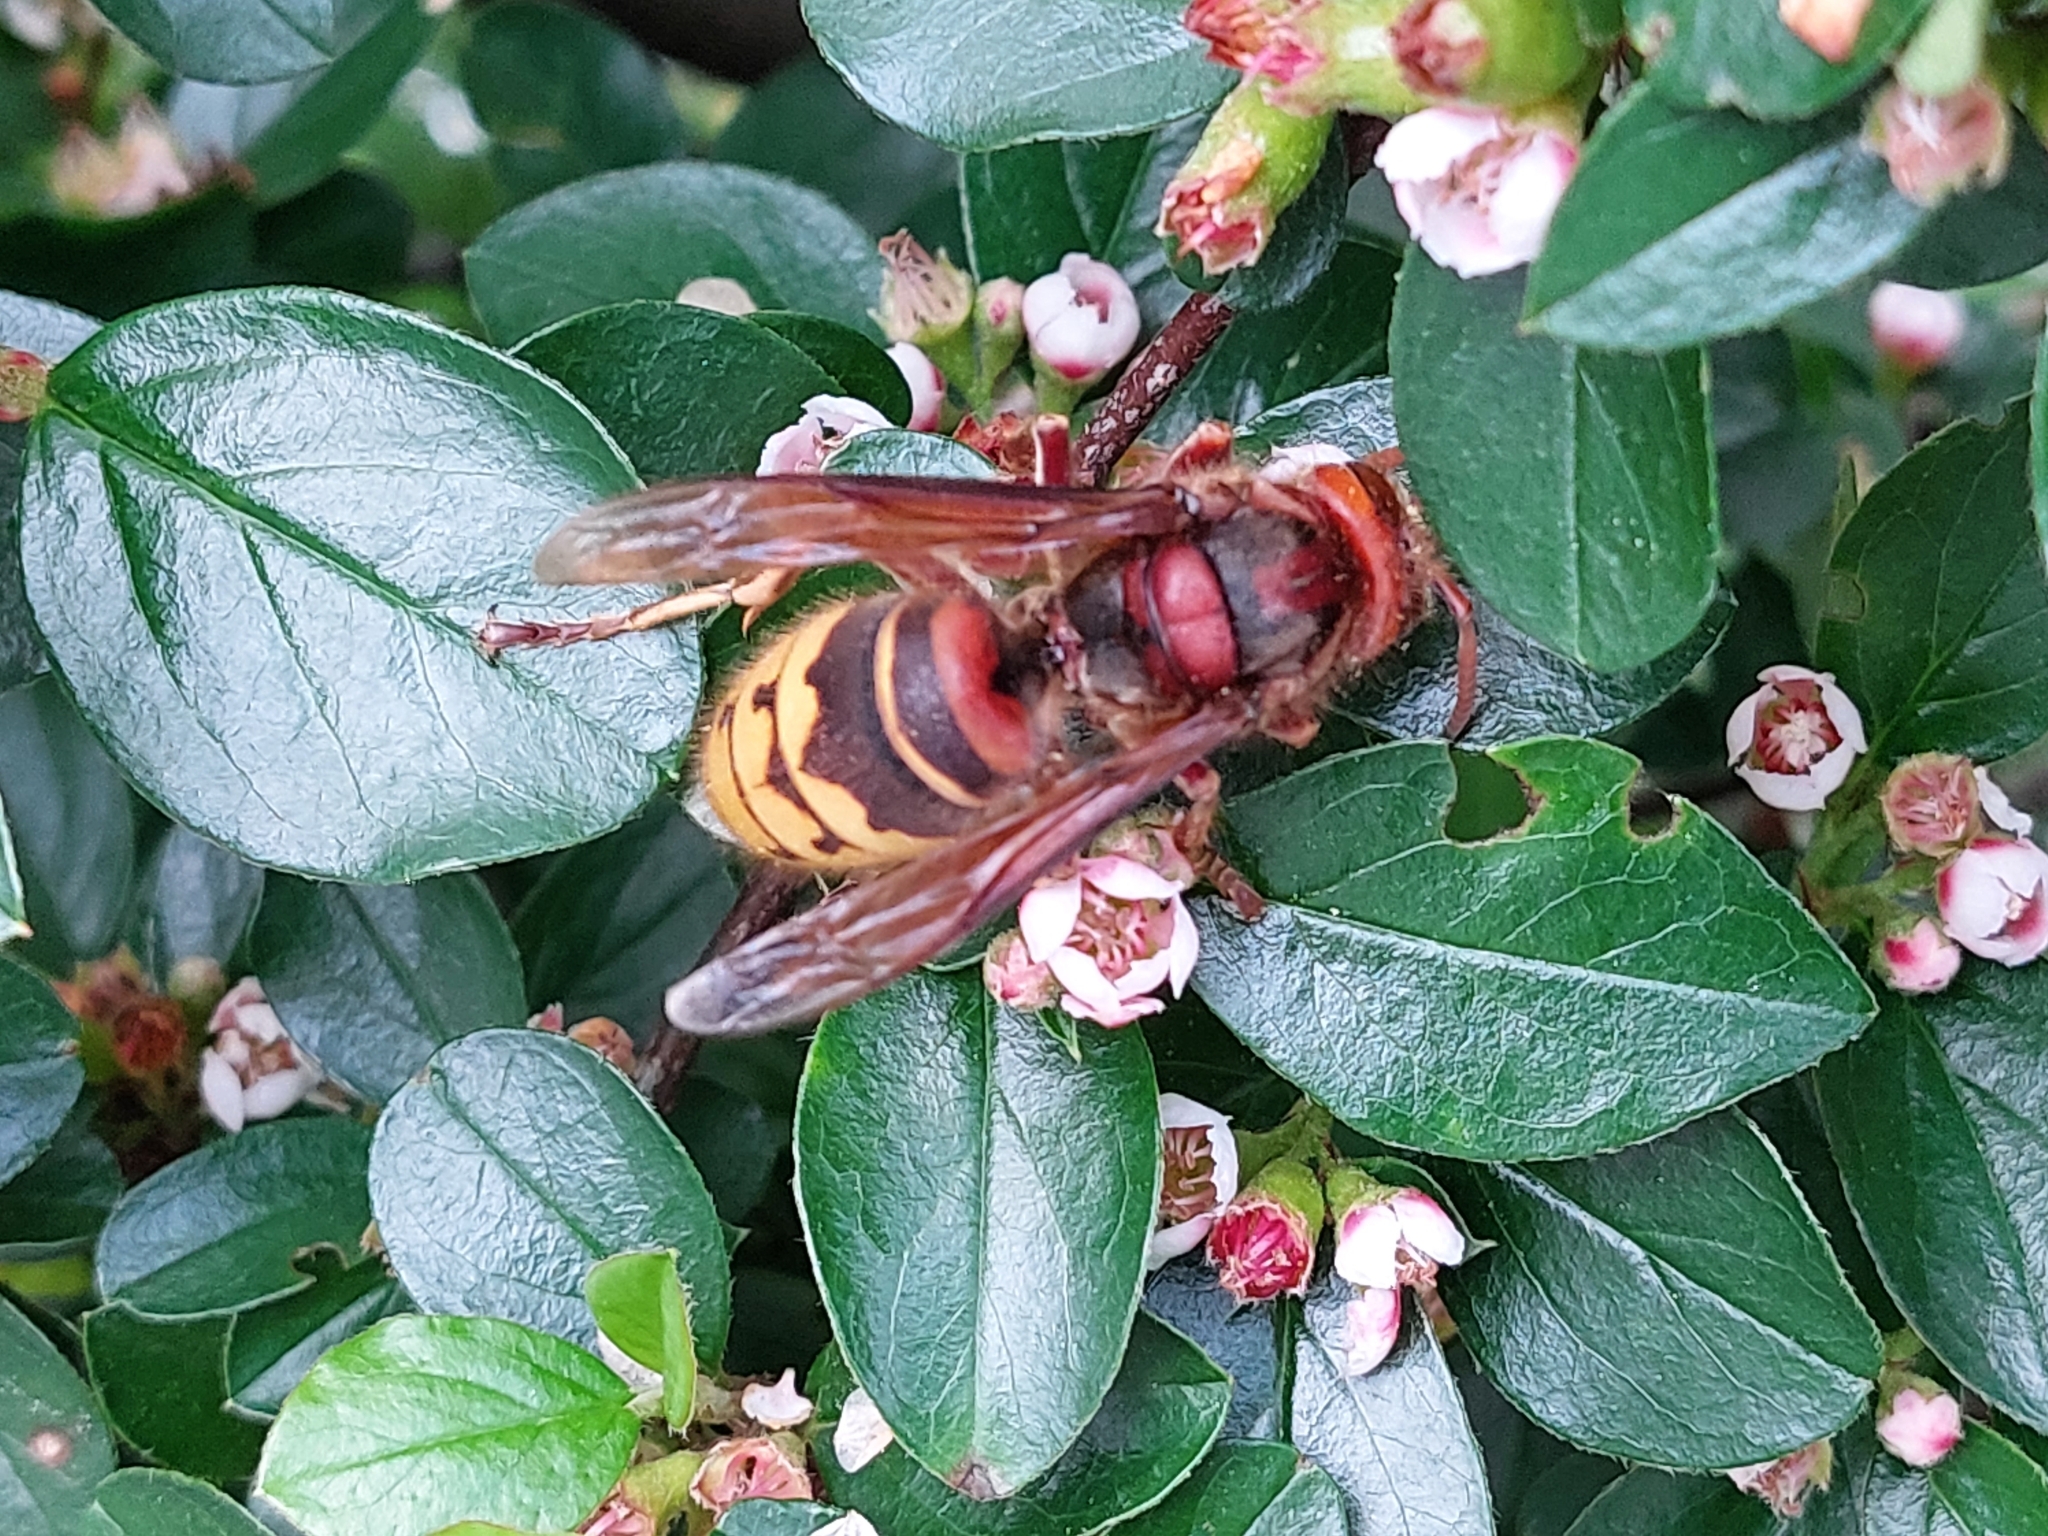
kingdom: Animalia
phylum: Arthropoda
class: Insecta
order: Hymenoptera
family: Vespidae
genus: Vespa
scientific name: Vespa crabro
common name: Hornet
